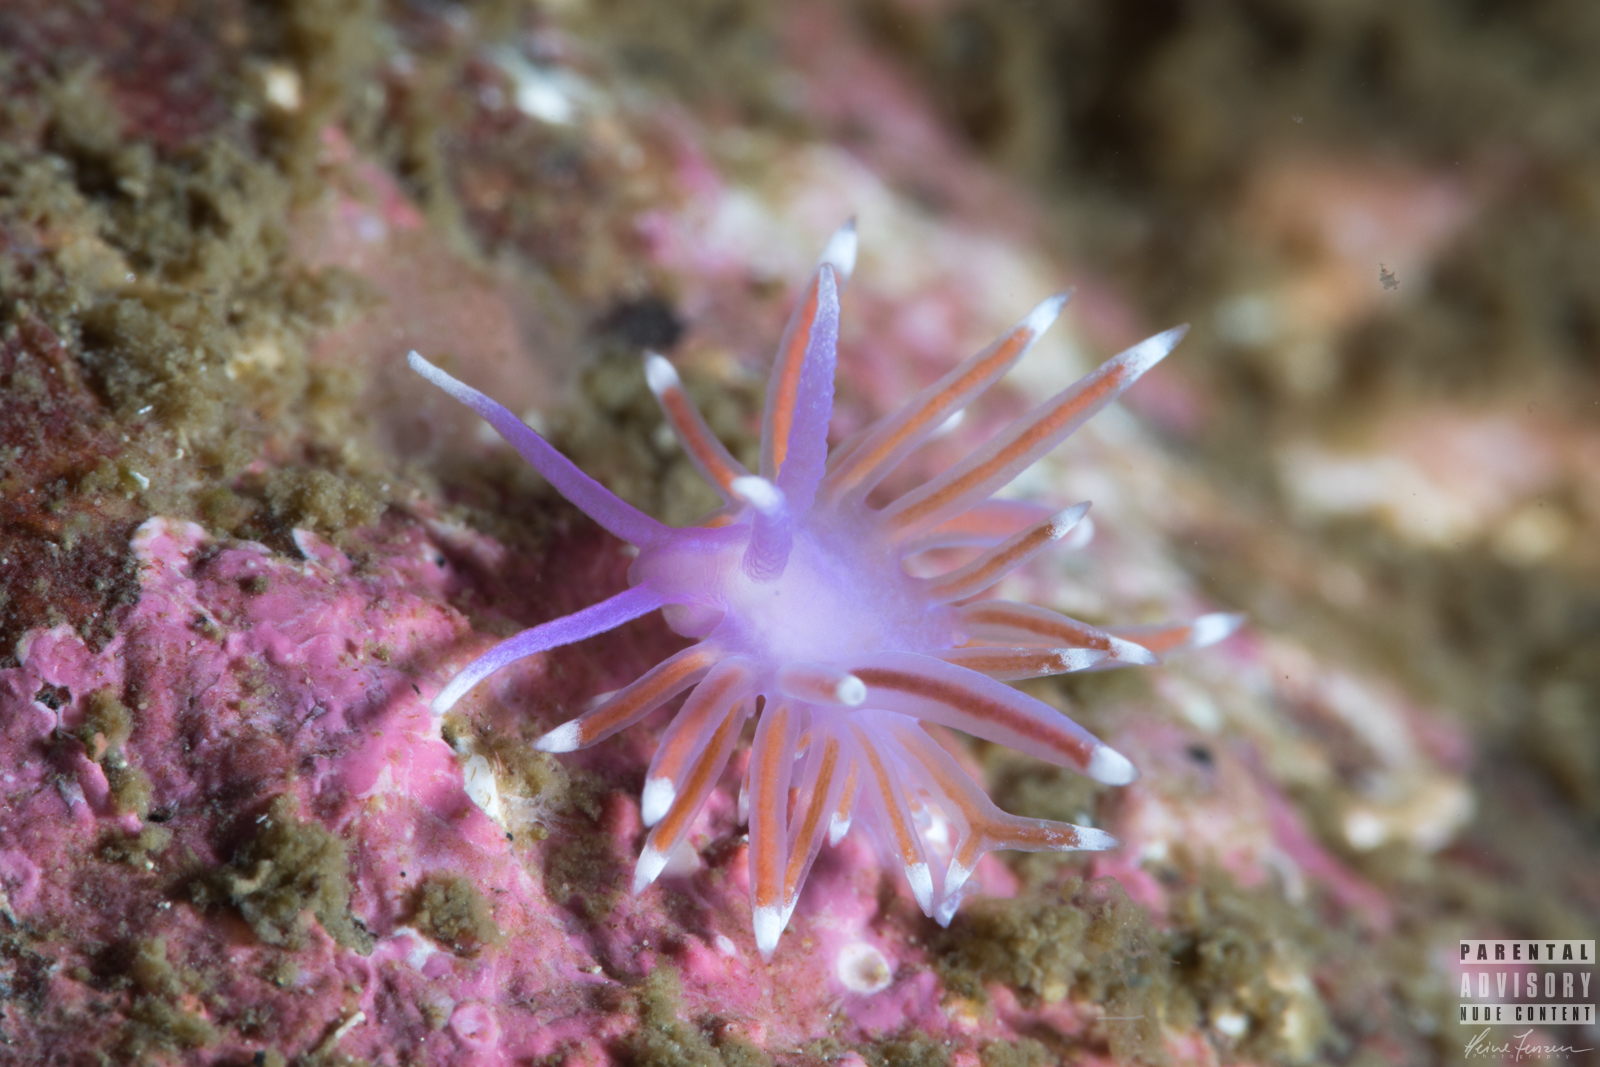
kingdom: Animalia
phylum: Mollusca
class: Gastropoda
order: Nudibranchia
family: Flabellinidae
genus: Edmundsella
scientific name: Edmundsella pedata
